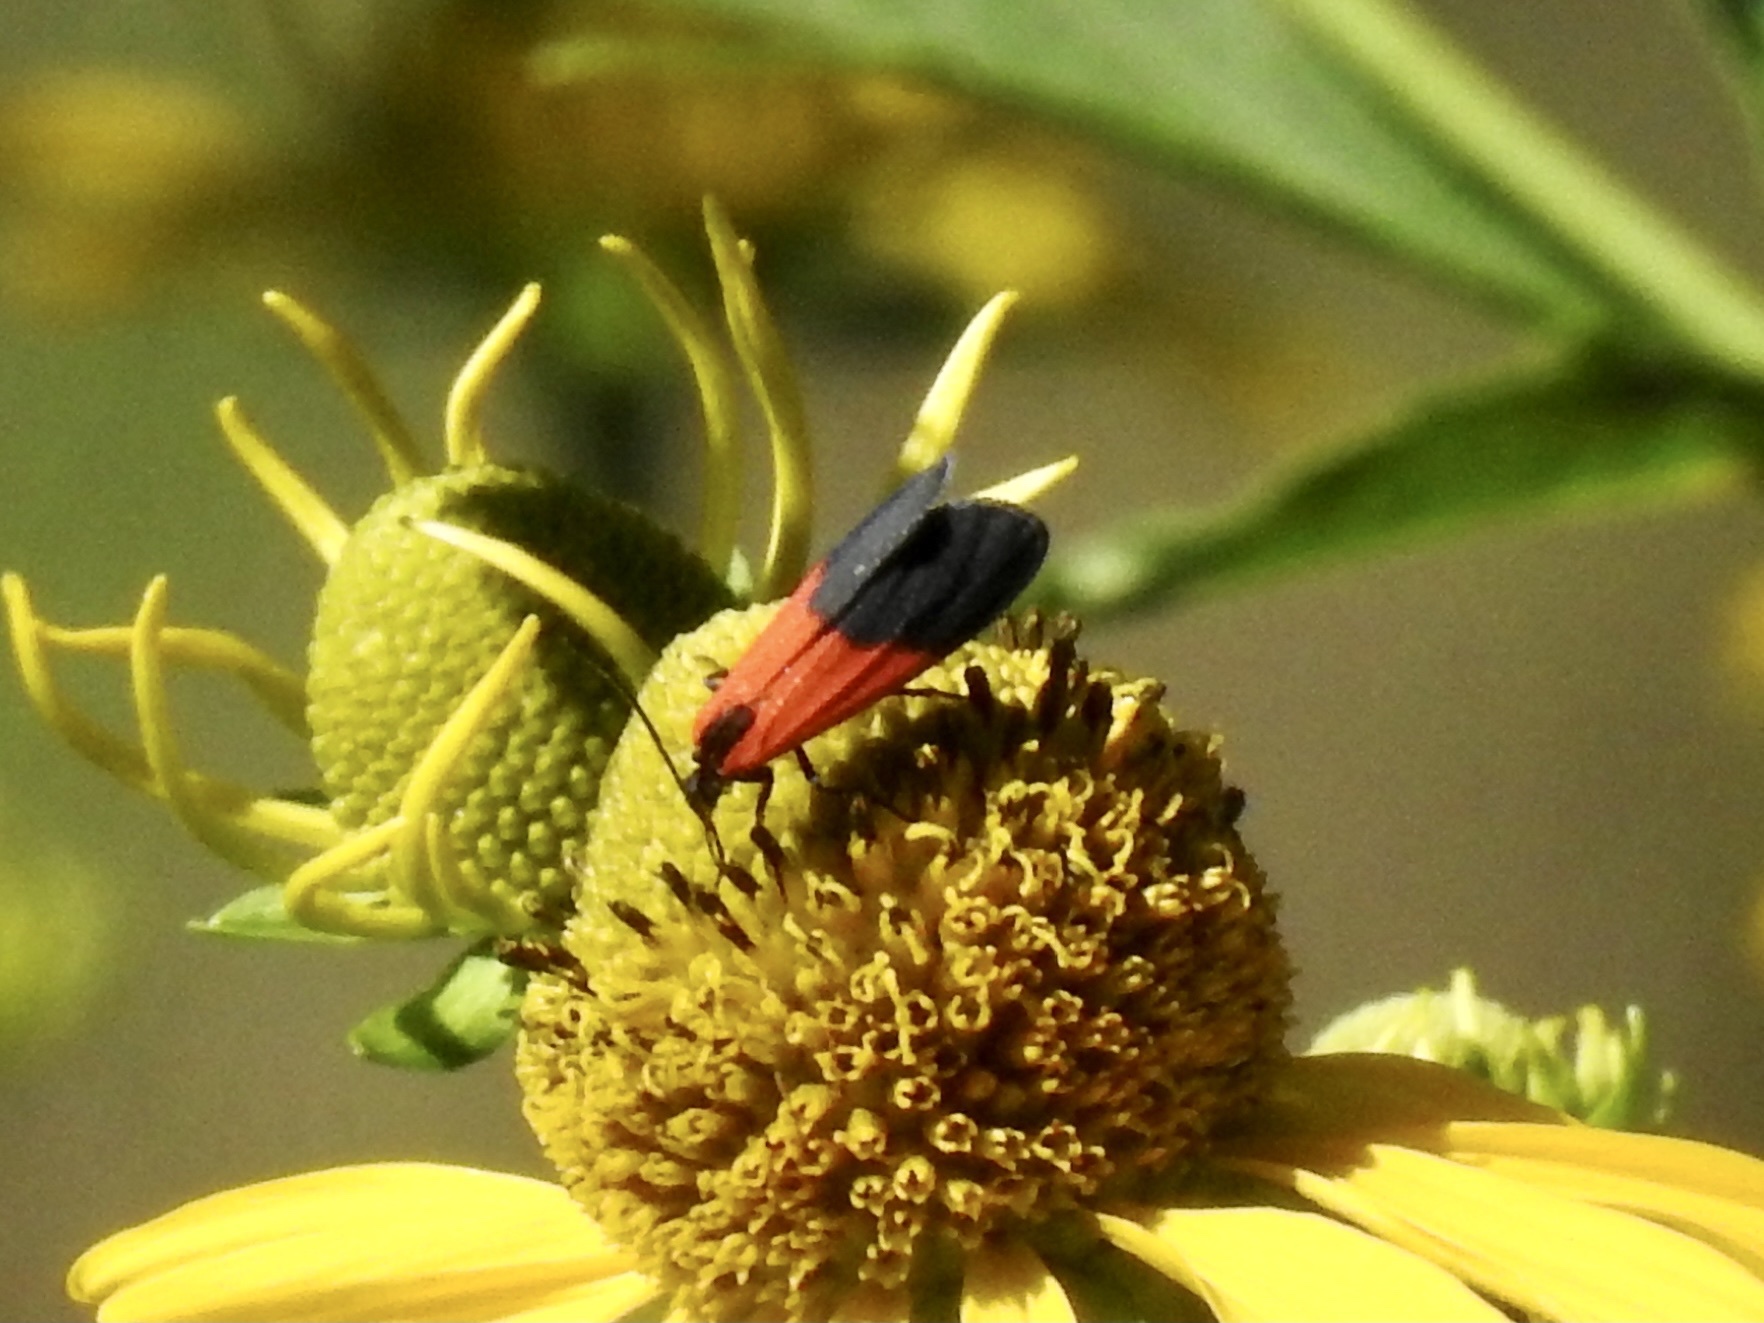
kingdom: Animalia
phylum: Arthropoda
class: Insecta
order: Lepidoptera
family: Erebidae
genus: Lycomorpha
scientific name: Lycomorpha pholus
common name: Black-and-yellow lichen moth
